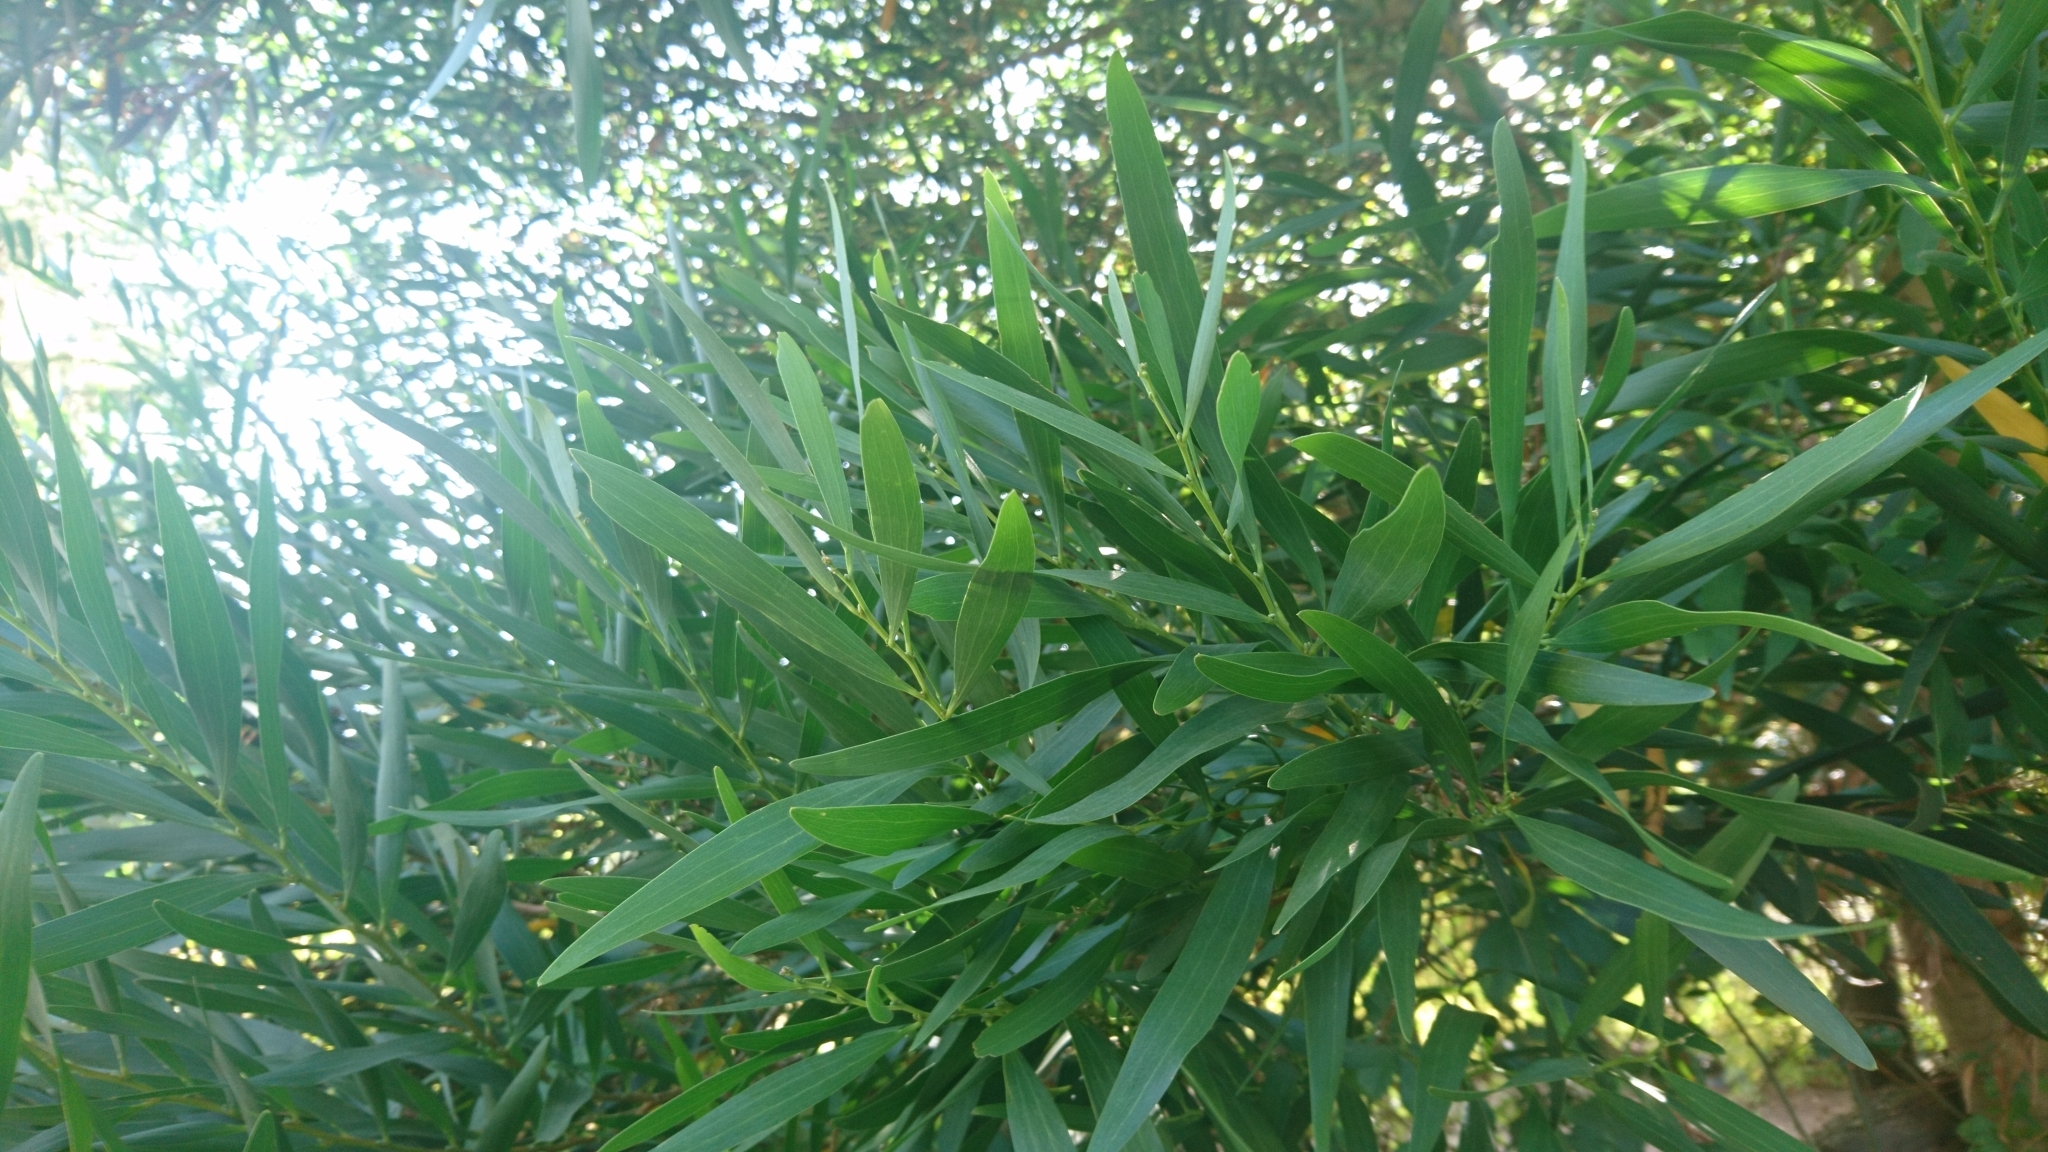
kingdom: Plantae
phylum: Tracheophyta
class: Magnoliopsida
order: Fabales
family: Fabaceae
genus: Acacia
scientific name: Acacia longifolia
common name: Sydney golden wattle
